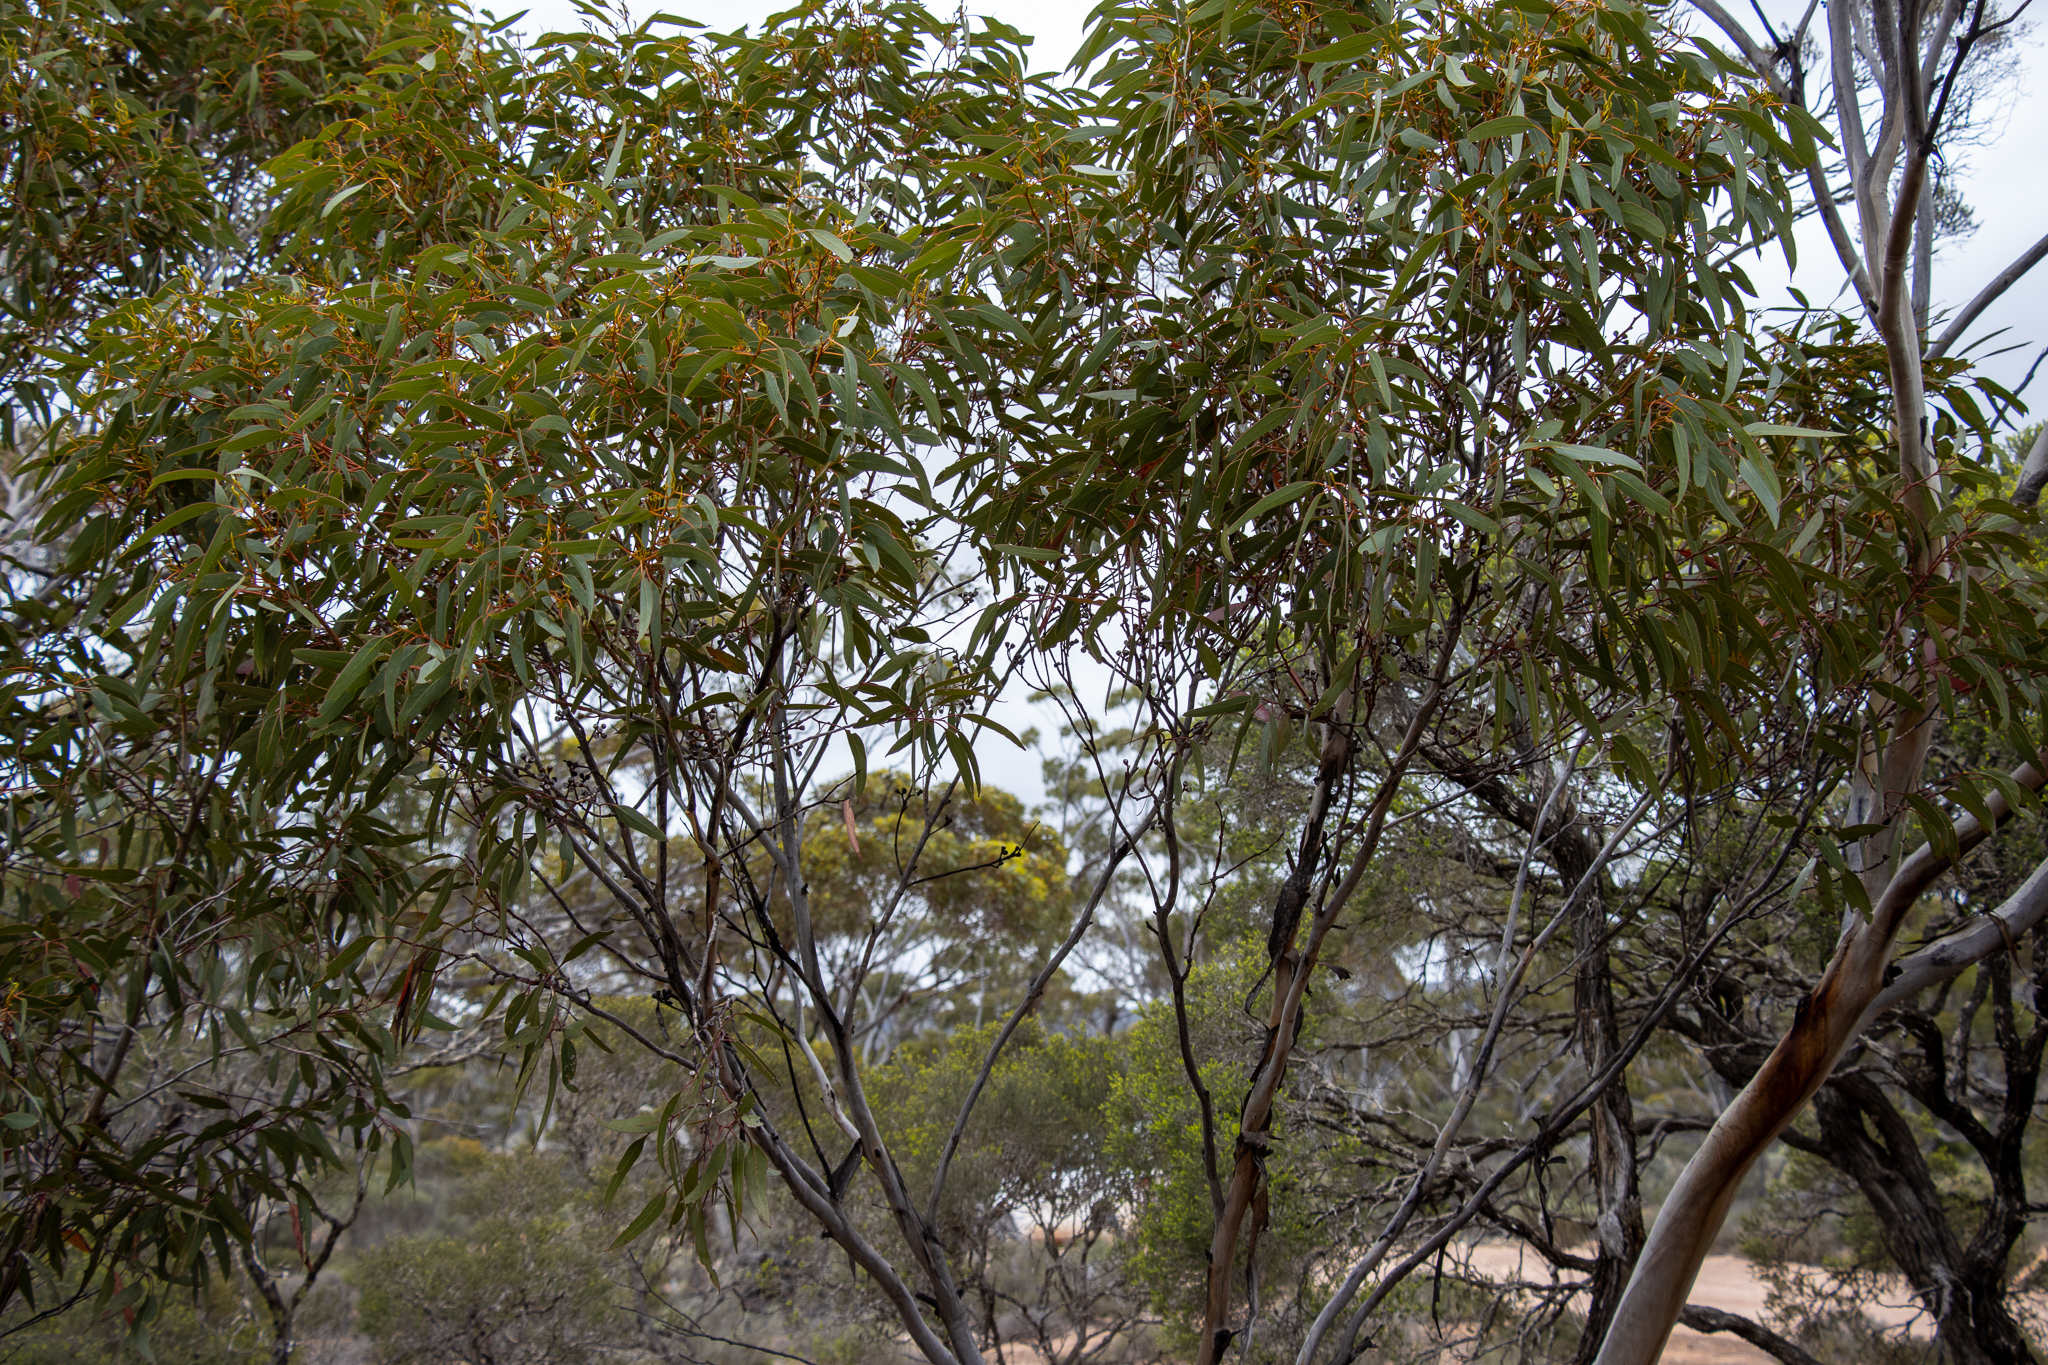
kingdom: Plantae
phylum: Tracheophyta
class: Magnoliopsida
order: Myrtales
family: Myrtaceae
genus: Eucalyptus
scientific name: Eucalyptus calcareana
